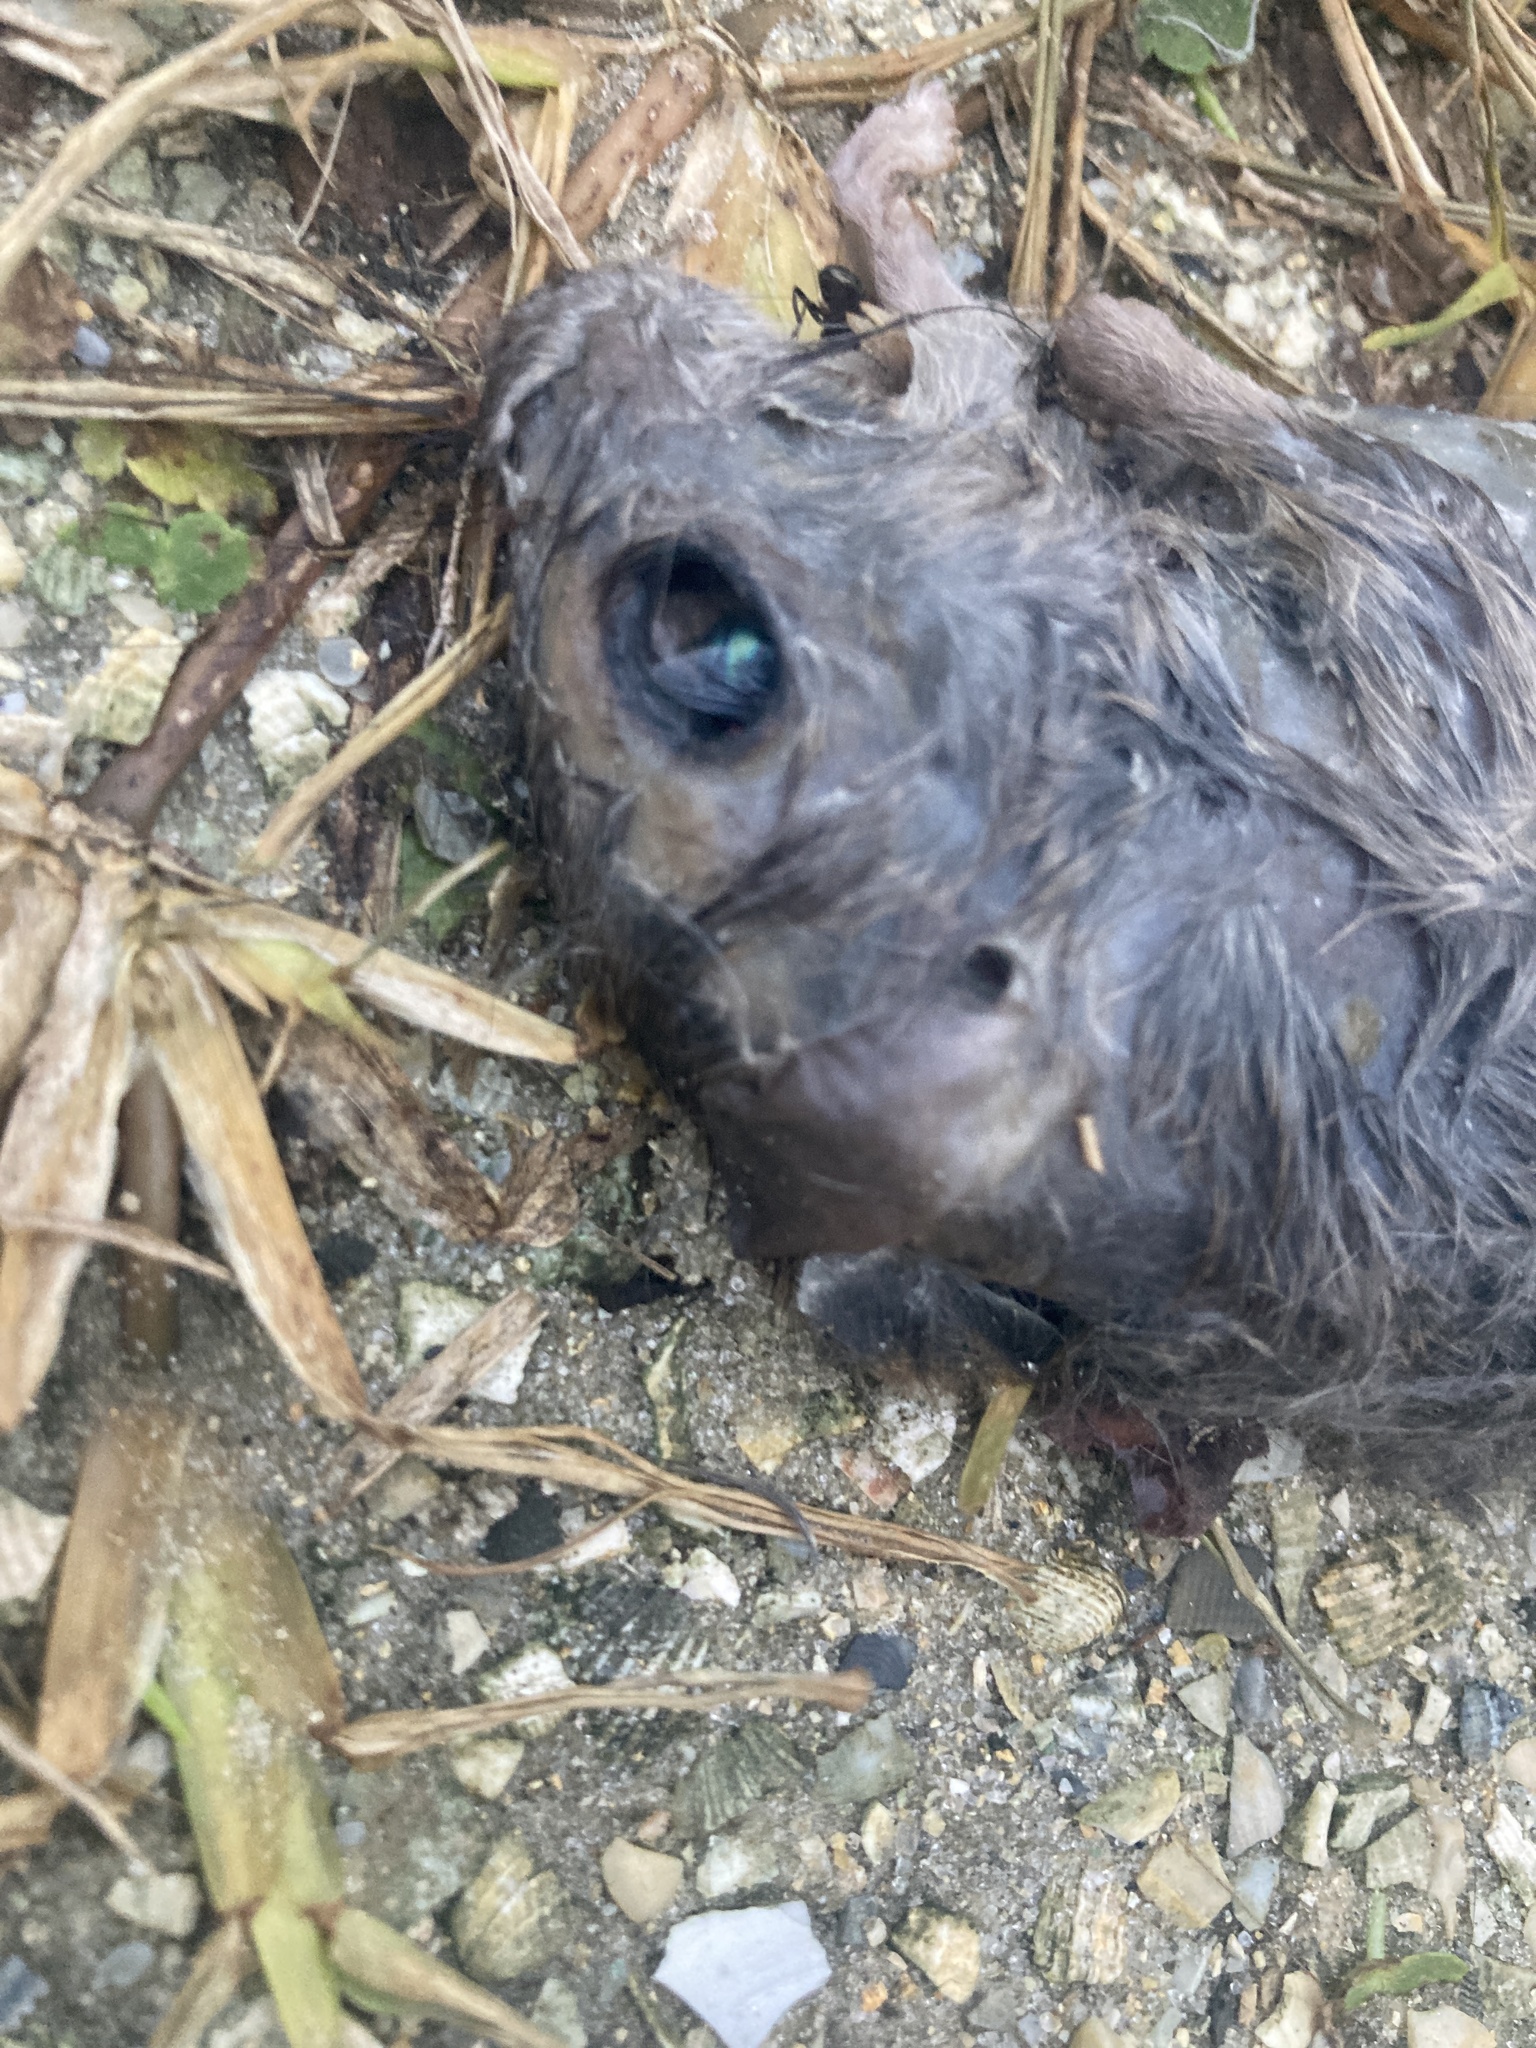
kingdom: Animalia
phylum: Chordata
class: Mammalia
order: Rodentia
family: Muridae
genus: Rattus
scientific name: Rattus rattus
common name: Black rat
